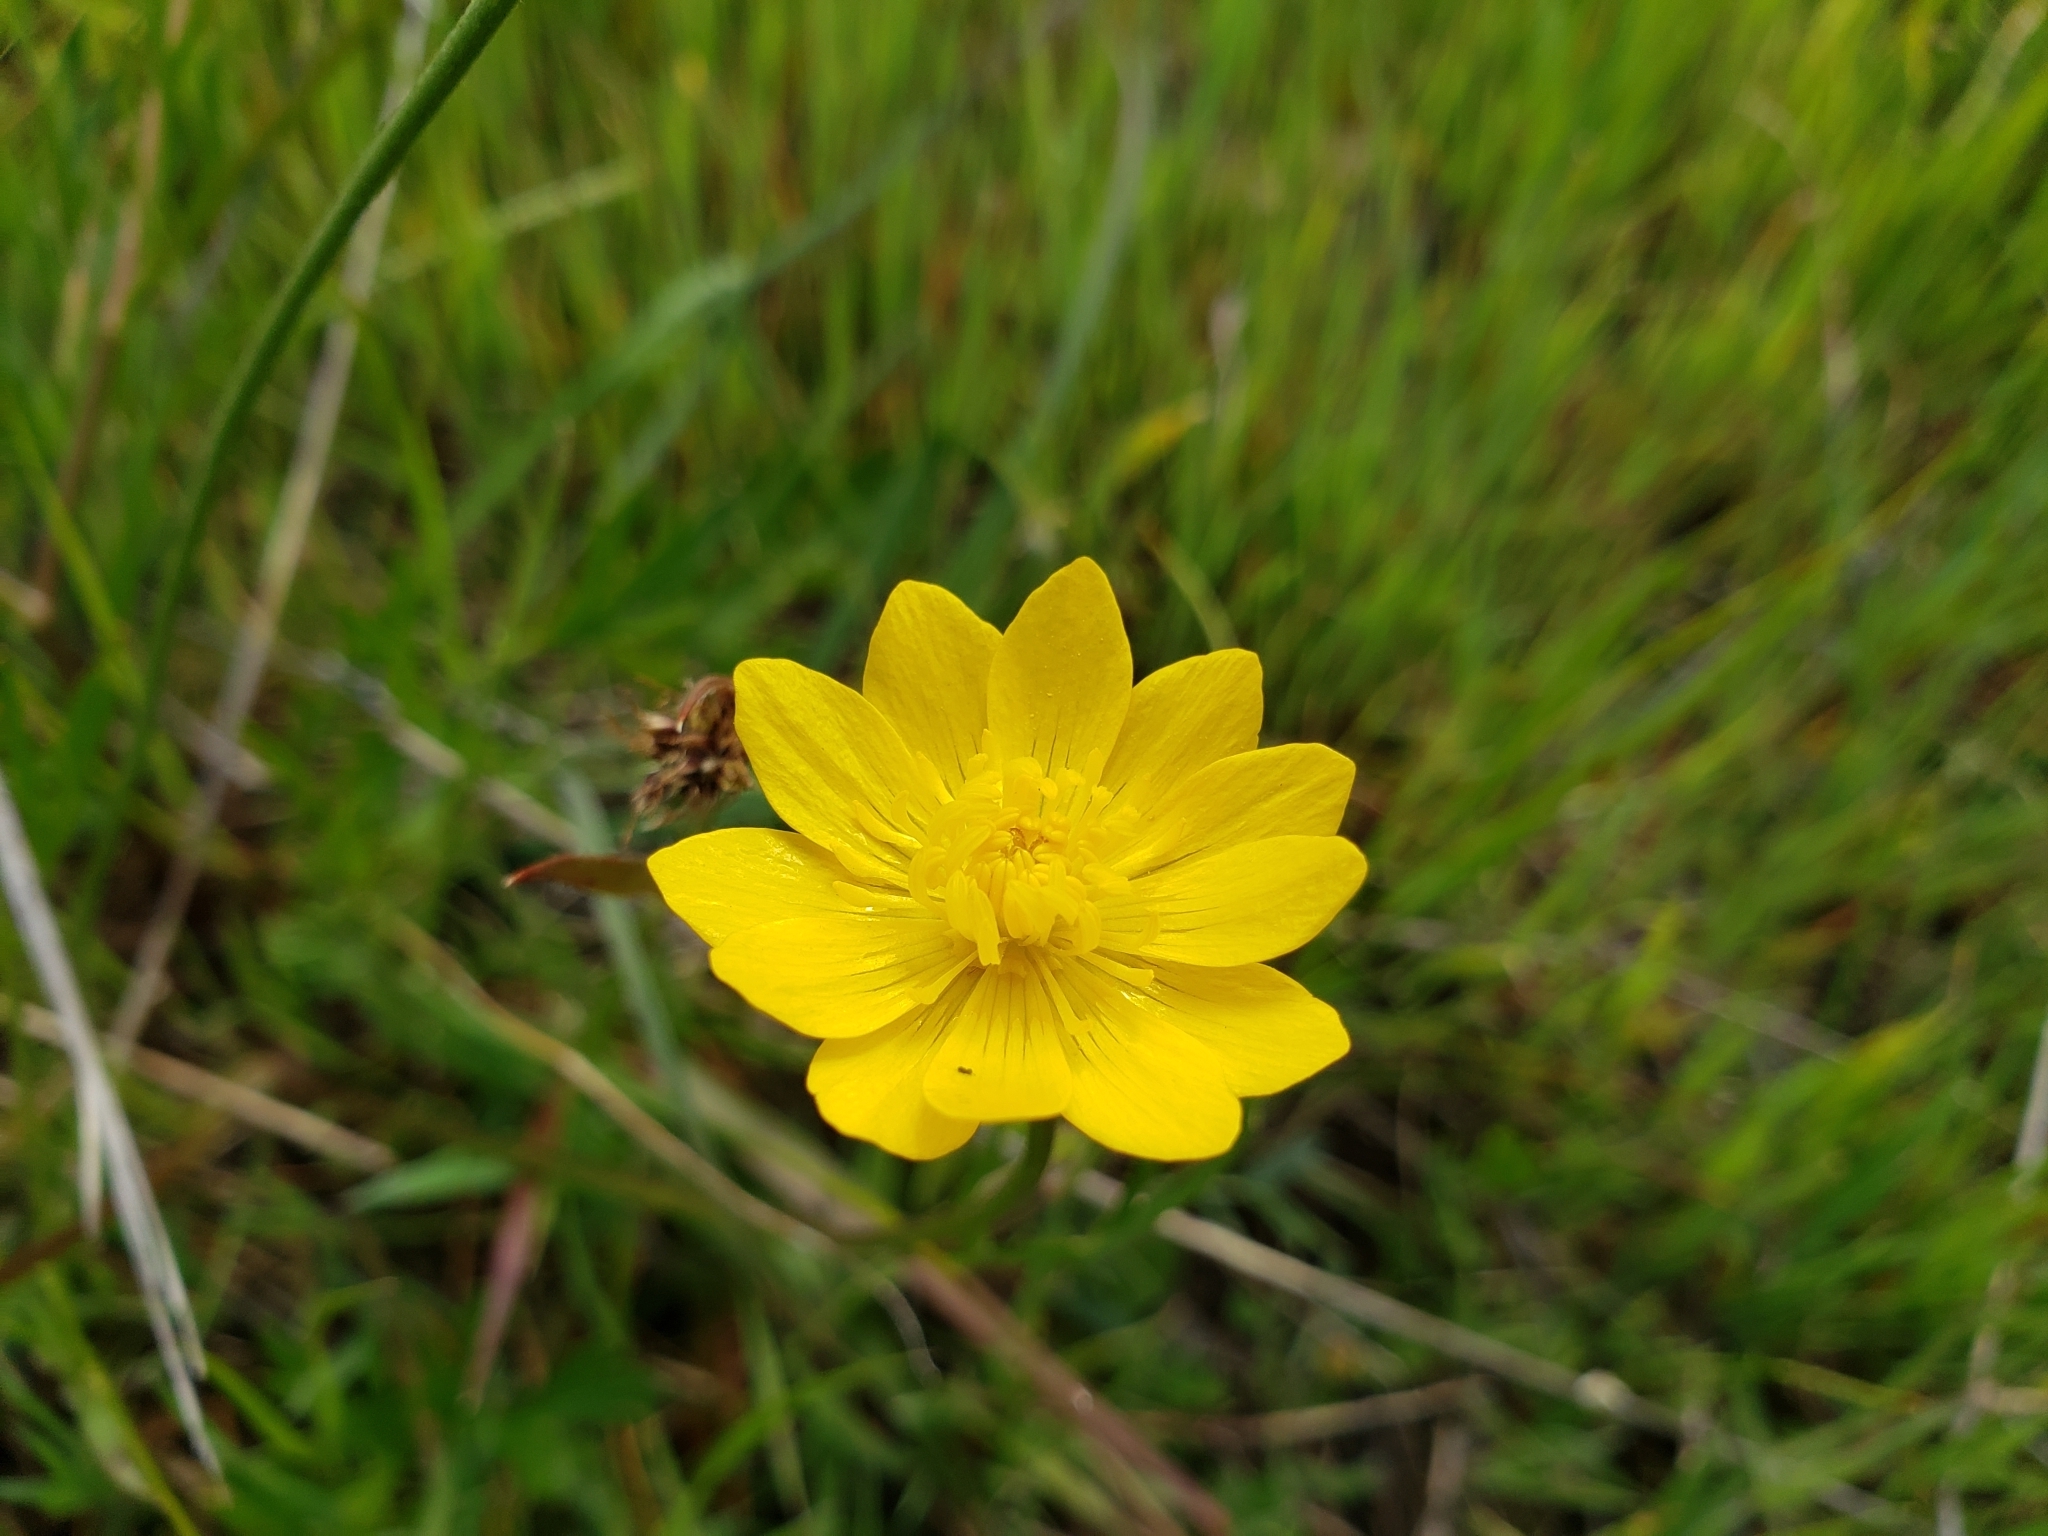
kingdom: Plantae
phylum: Tracheophyta
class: Magnoliopsida
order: Ranunculales
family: Ranunculaceae
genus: Ranunculus
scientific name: Ranunculus californicus
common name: California buttercup
